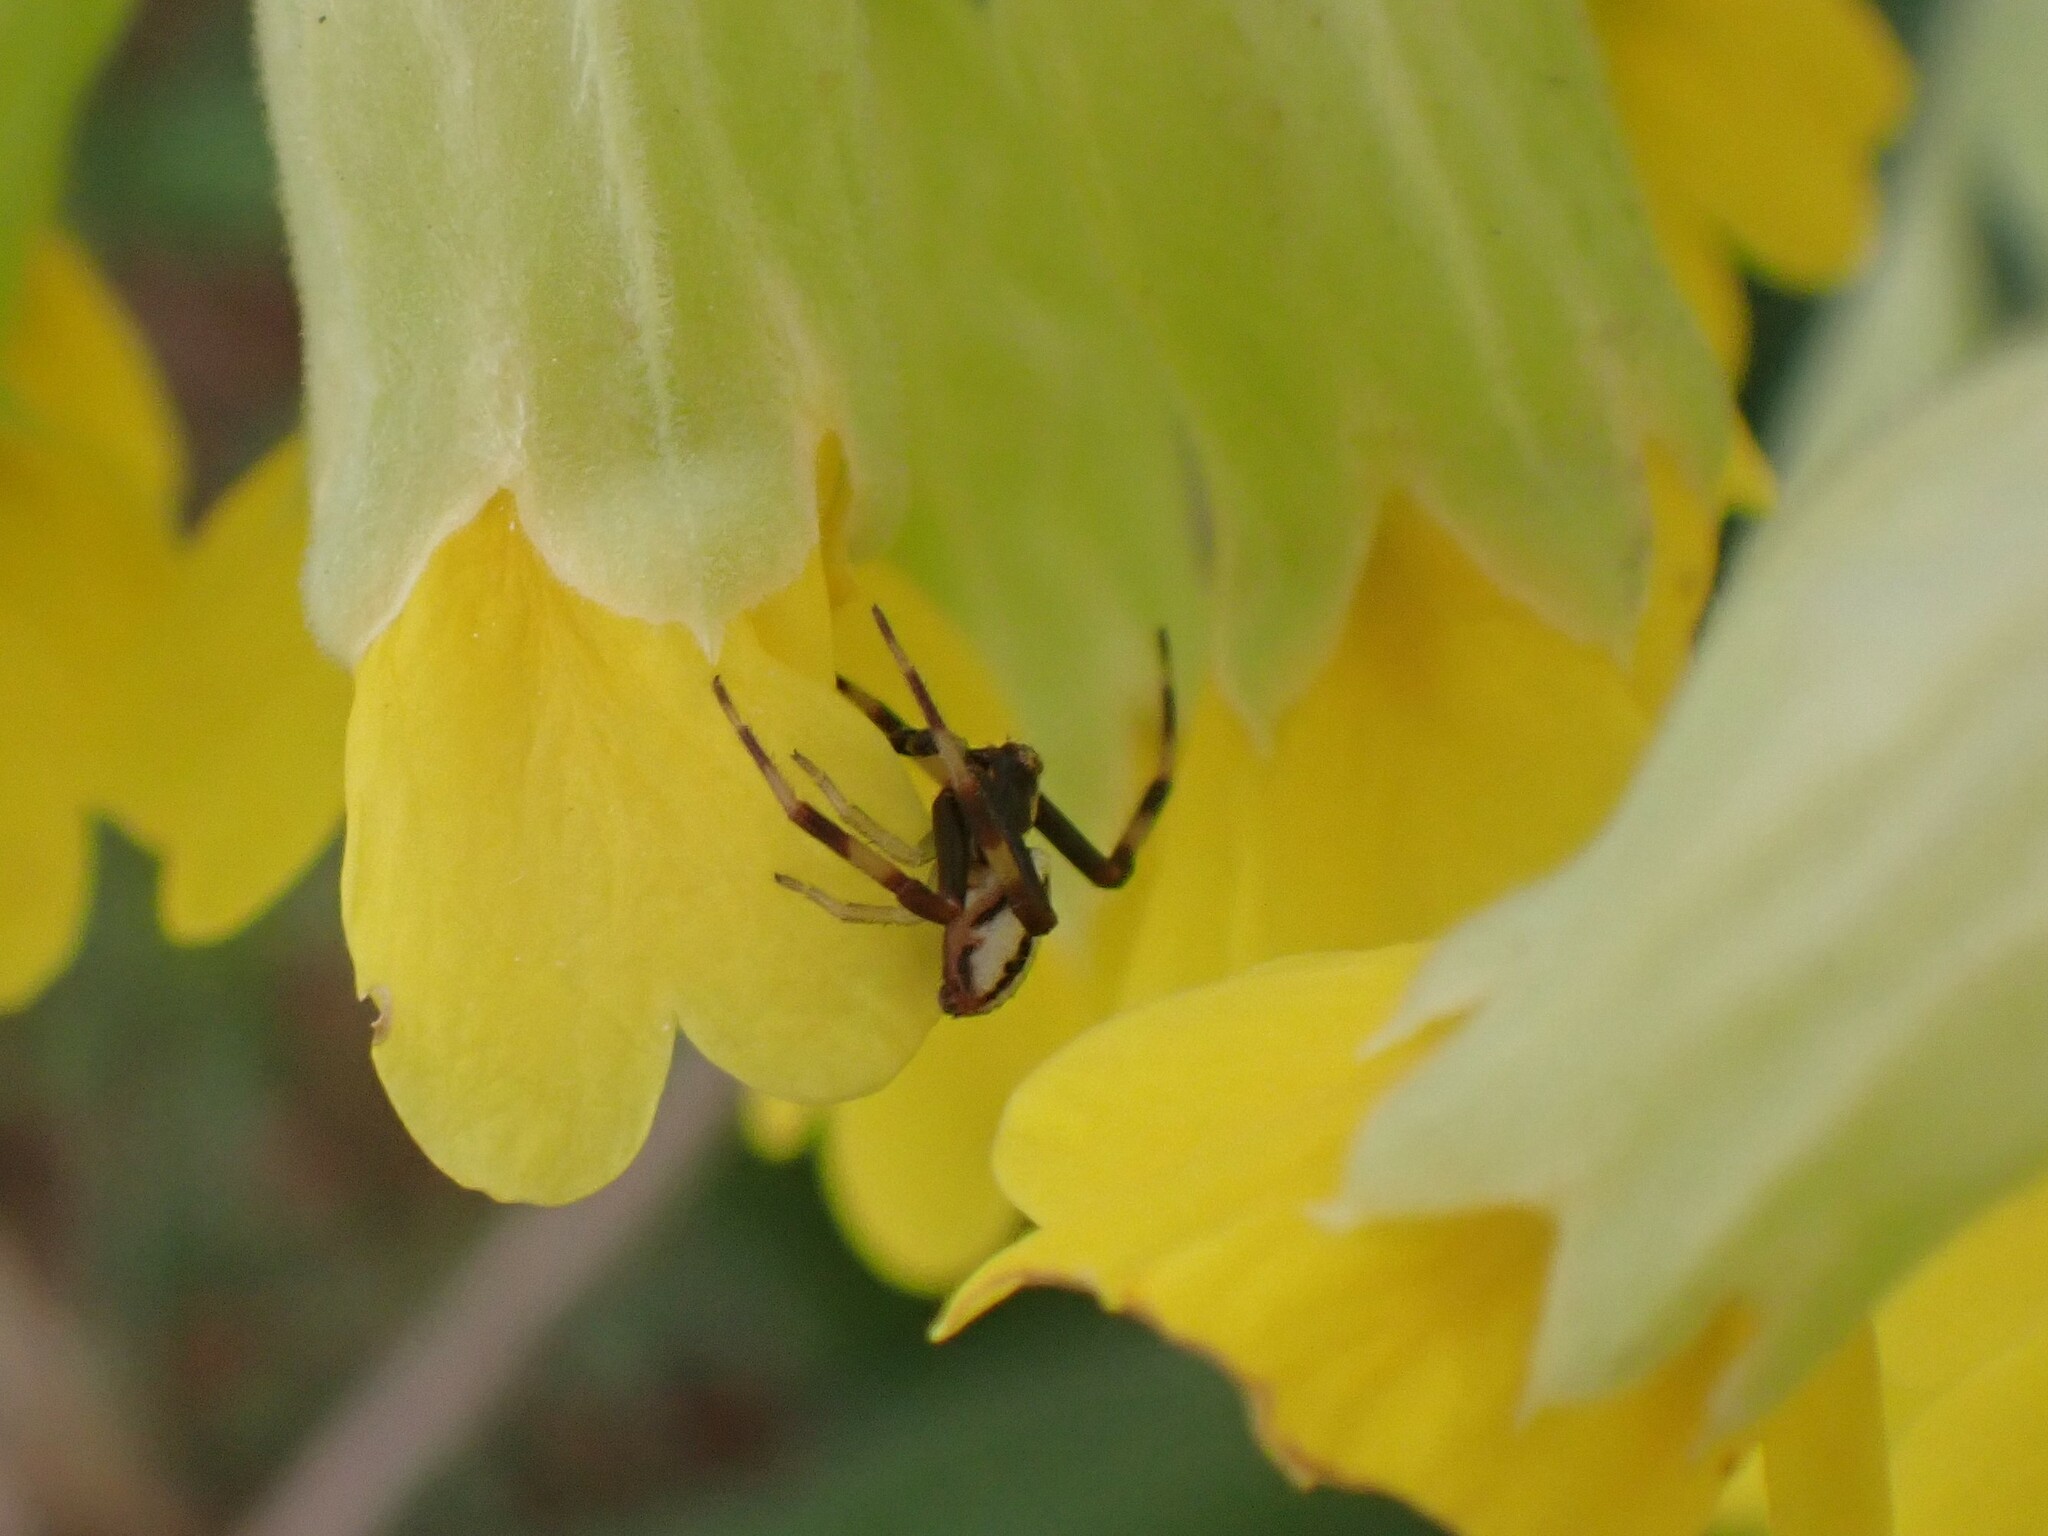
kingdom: Animalia
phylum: Arthropoda
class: Arachnida
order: Araneae
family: Thomisidae
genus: Misumena
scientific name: Misumena vatia
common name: Goldenrod crab spider
